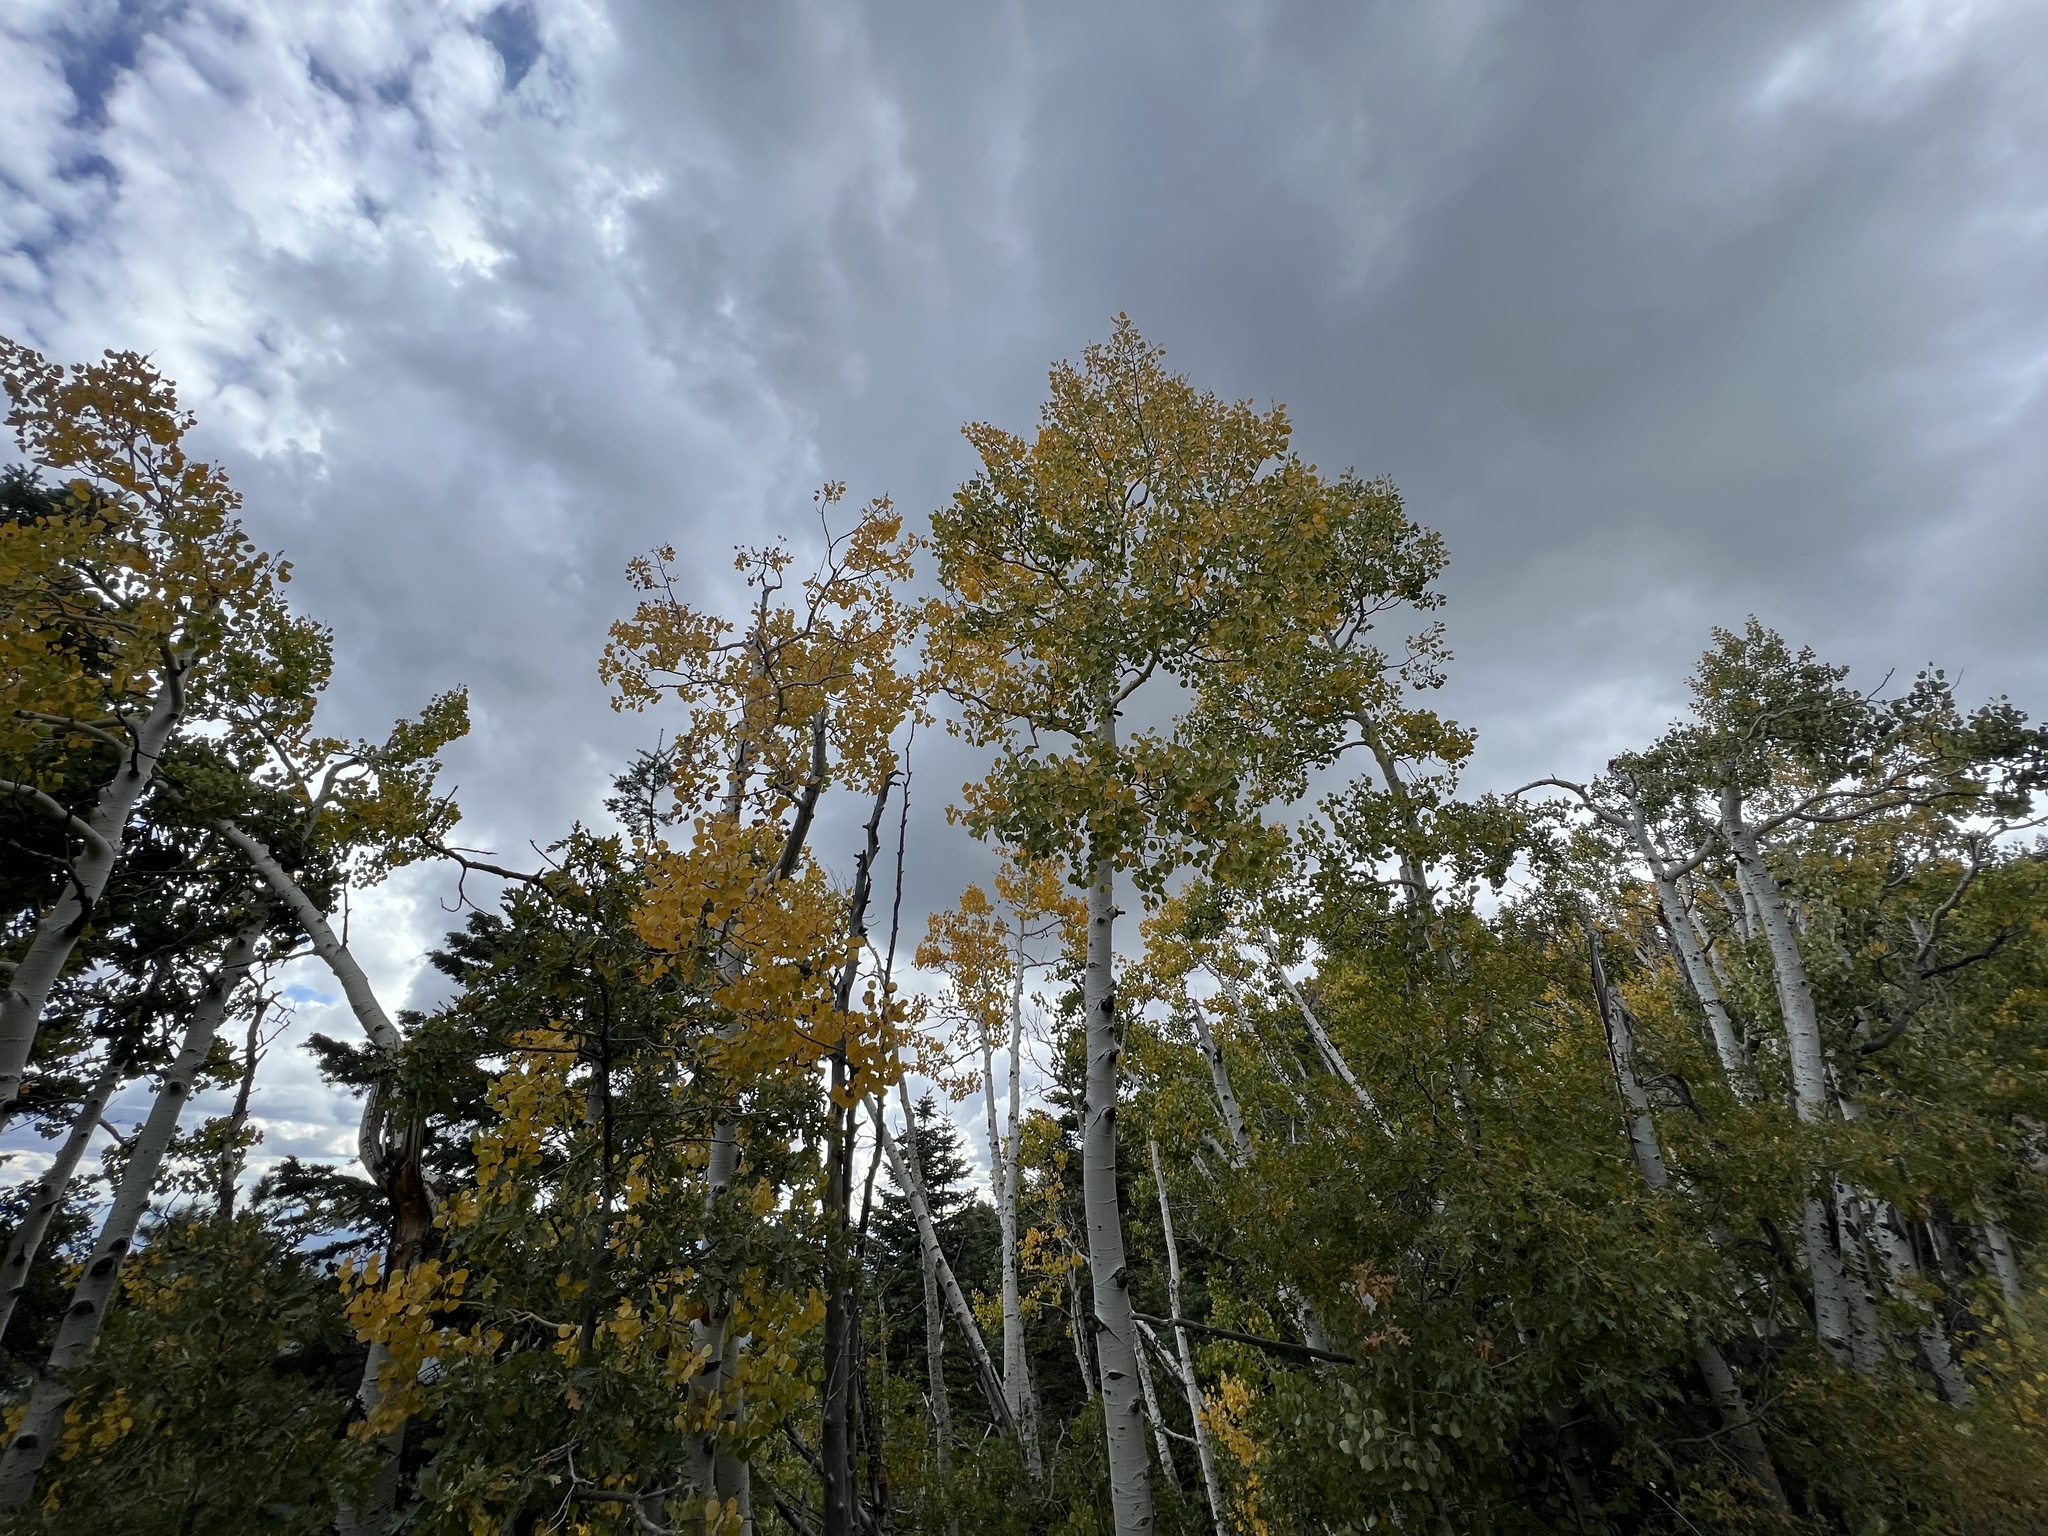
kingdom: Plantae
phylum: Tracheophyta
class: Magnoliopsida
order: Malpighiales
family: Salicaceae
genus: Populus
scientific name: Populus tremuloides
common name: Quaking aspen
